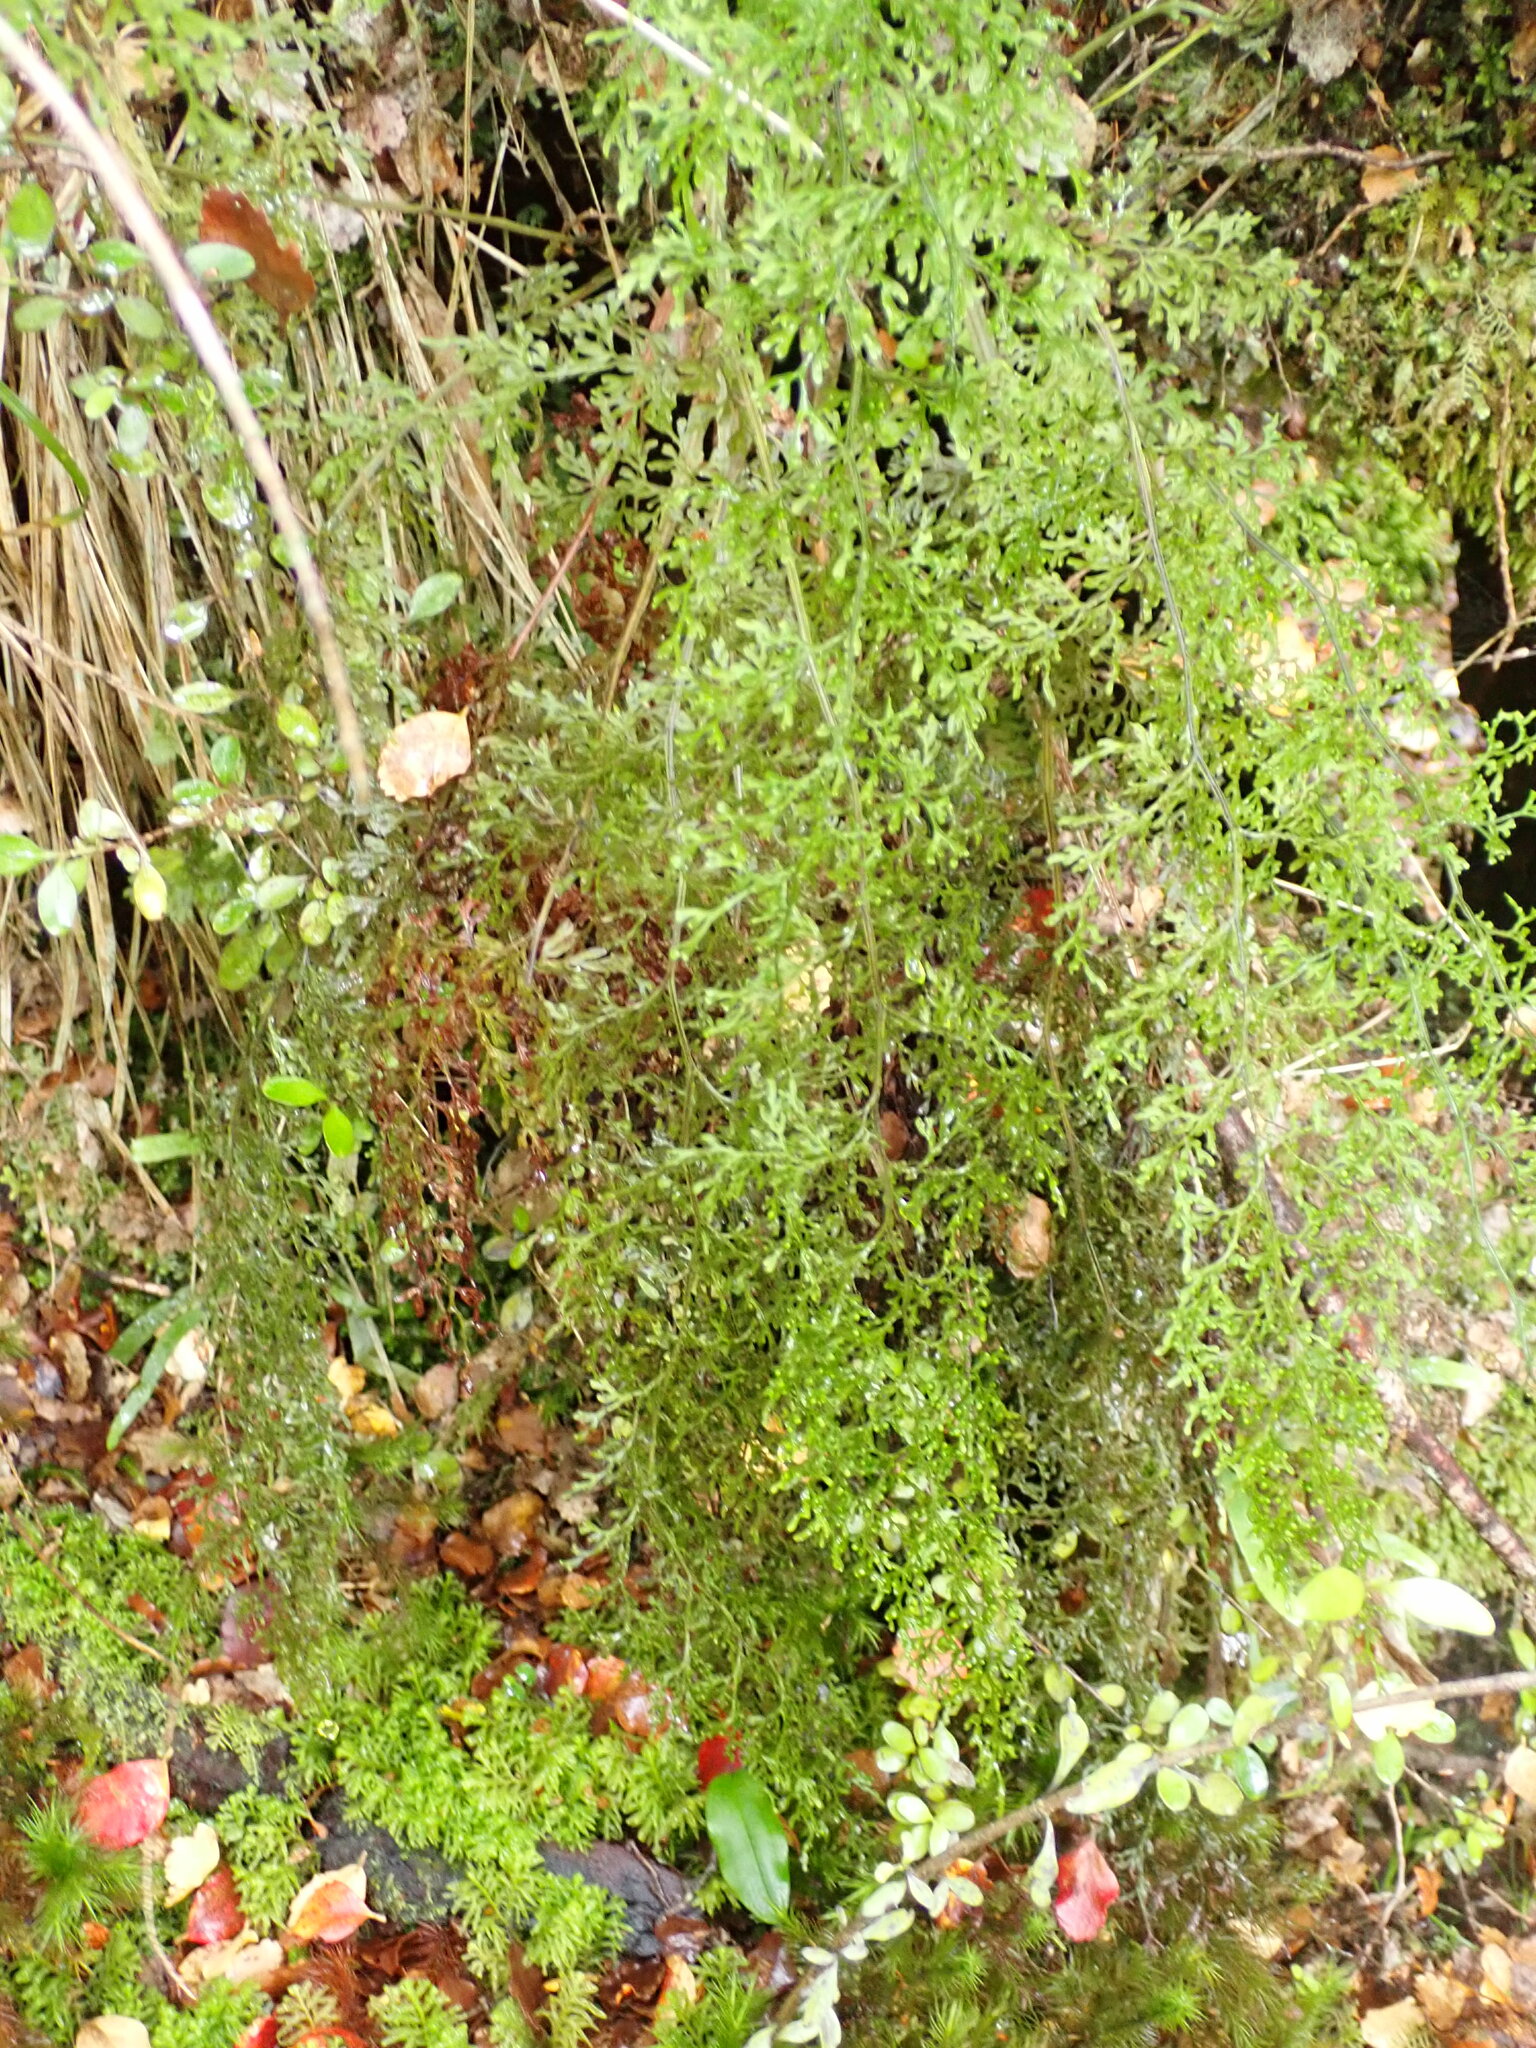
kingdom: Plantae
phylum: Tracheophyta
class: Polypodiopsida
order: Hymenophyllales
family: Hymenophyllaceae
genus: Hymenophyllum
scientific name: Hymenophyllum pulcherrimum
